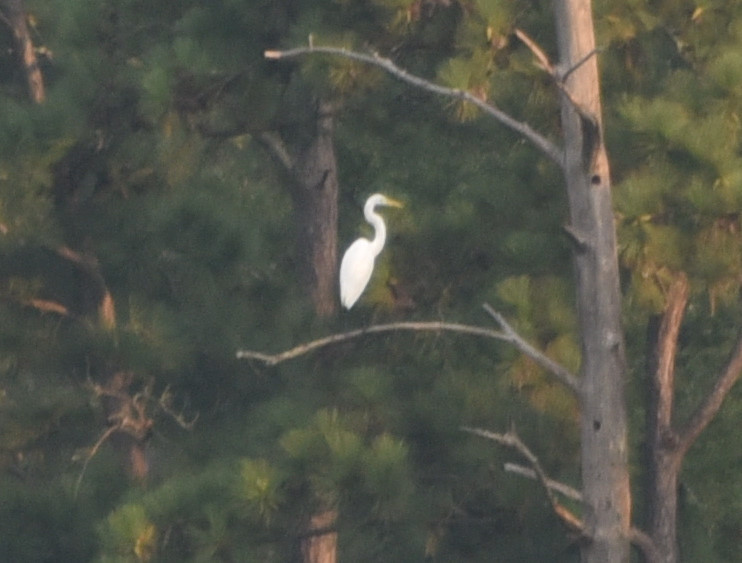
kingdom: Animalia
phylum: Chordata
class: Aves
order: Pelecaniformes
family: Ardeidae
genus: Ardea
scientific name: Ardea alba
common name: Great egret
